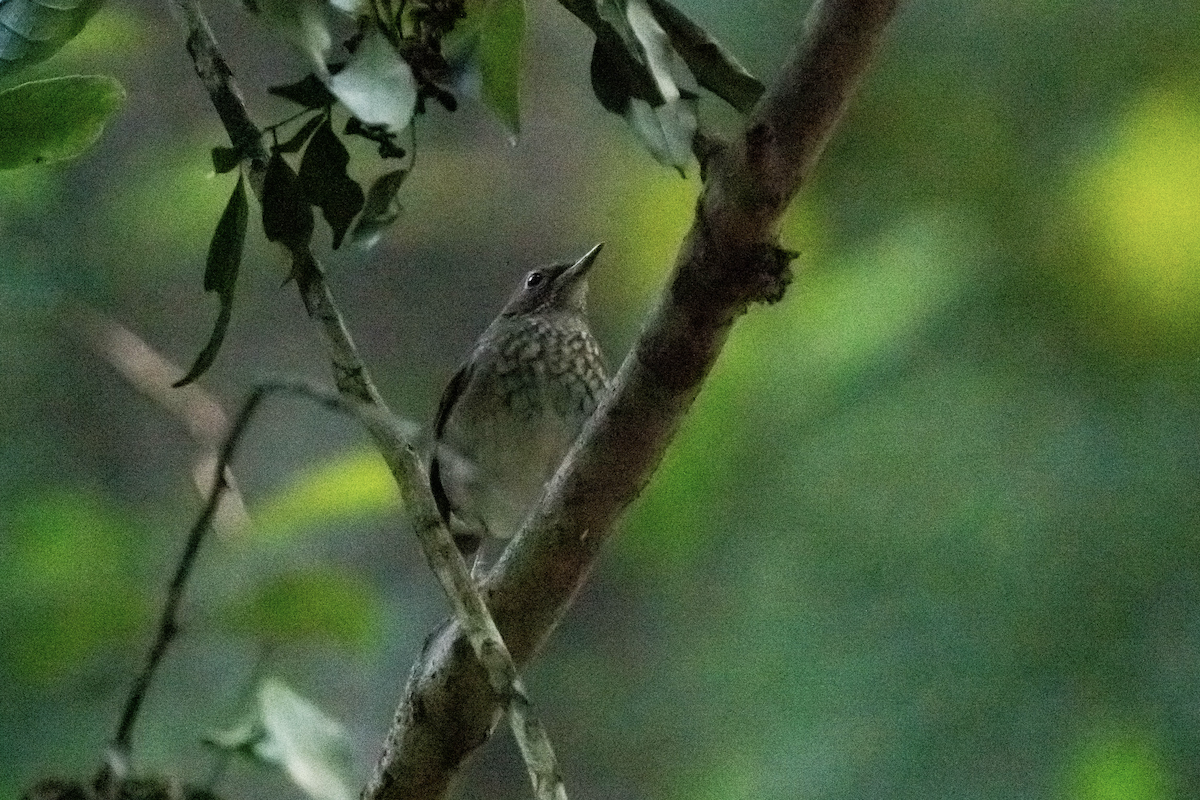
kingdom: Animalia
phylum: Chordata
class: Aves
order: Passeriformes
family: Muscicapidae
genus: Larvivora
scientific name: Larvivora sibilans
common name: Rufous-tailed robin
